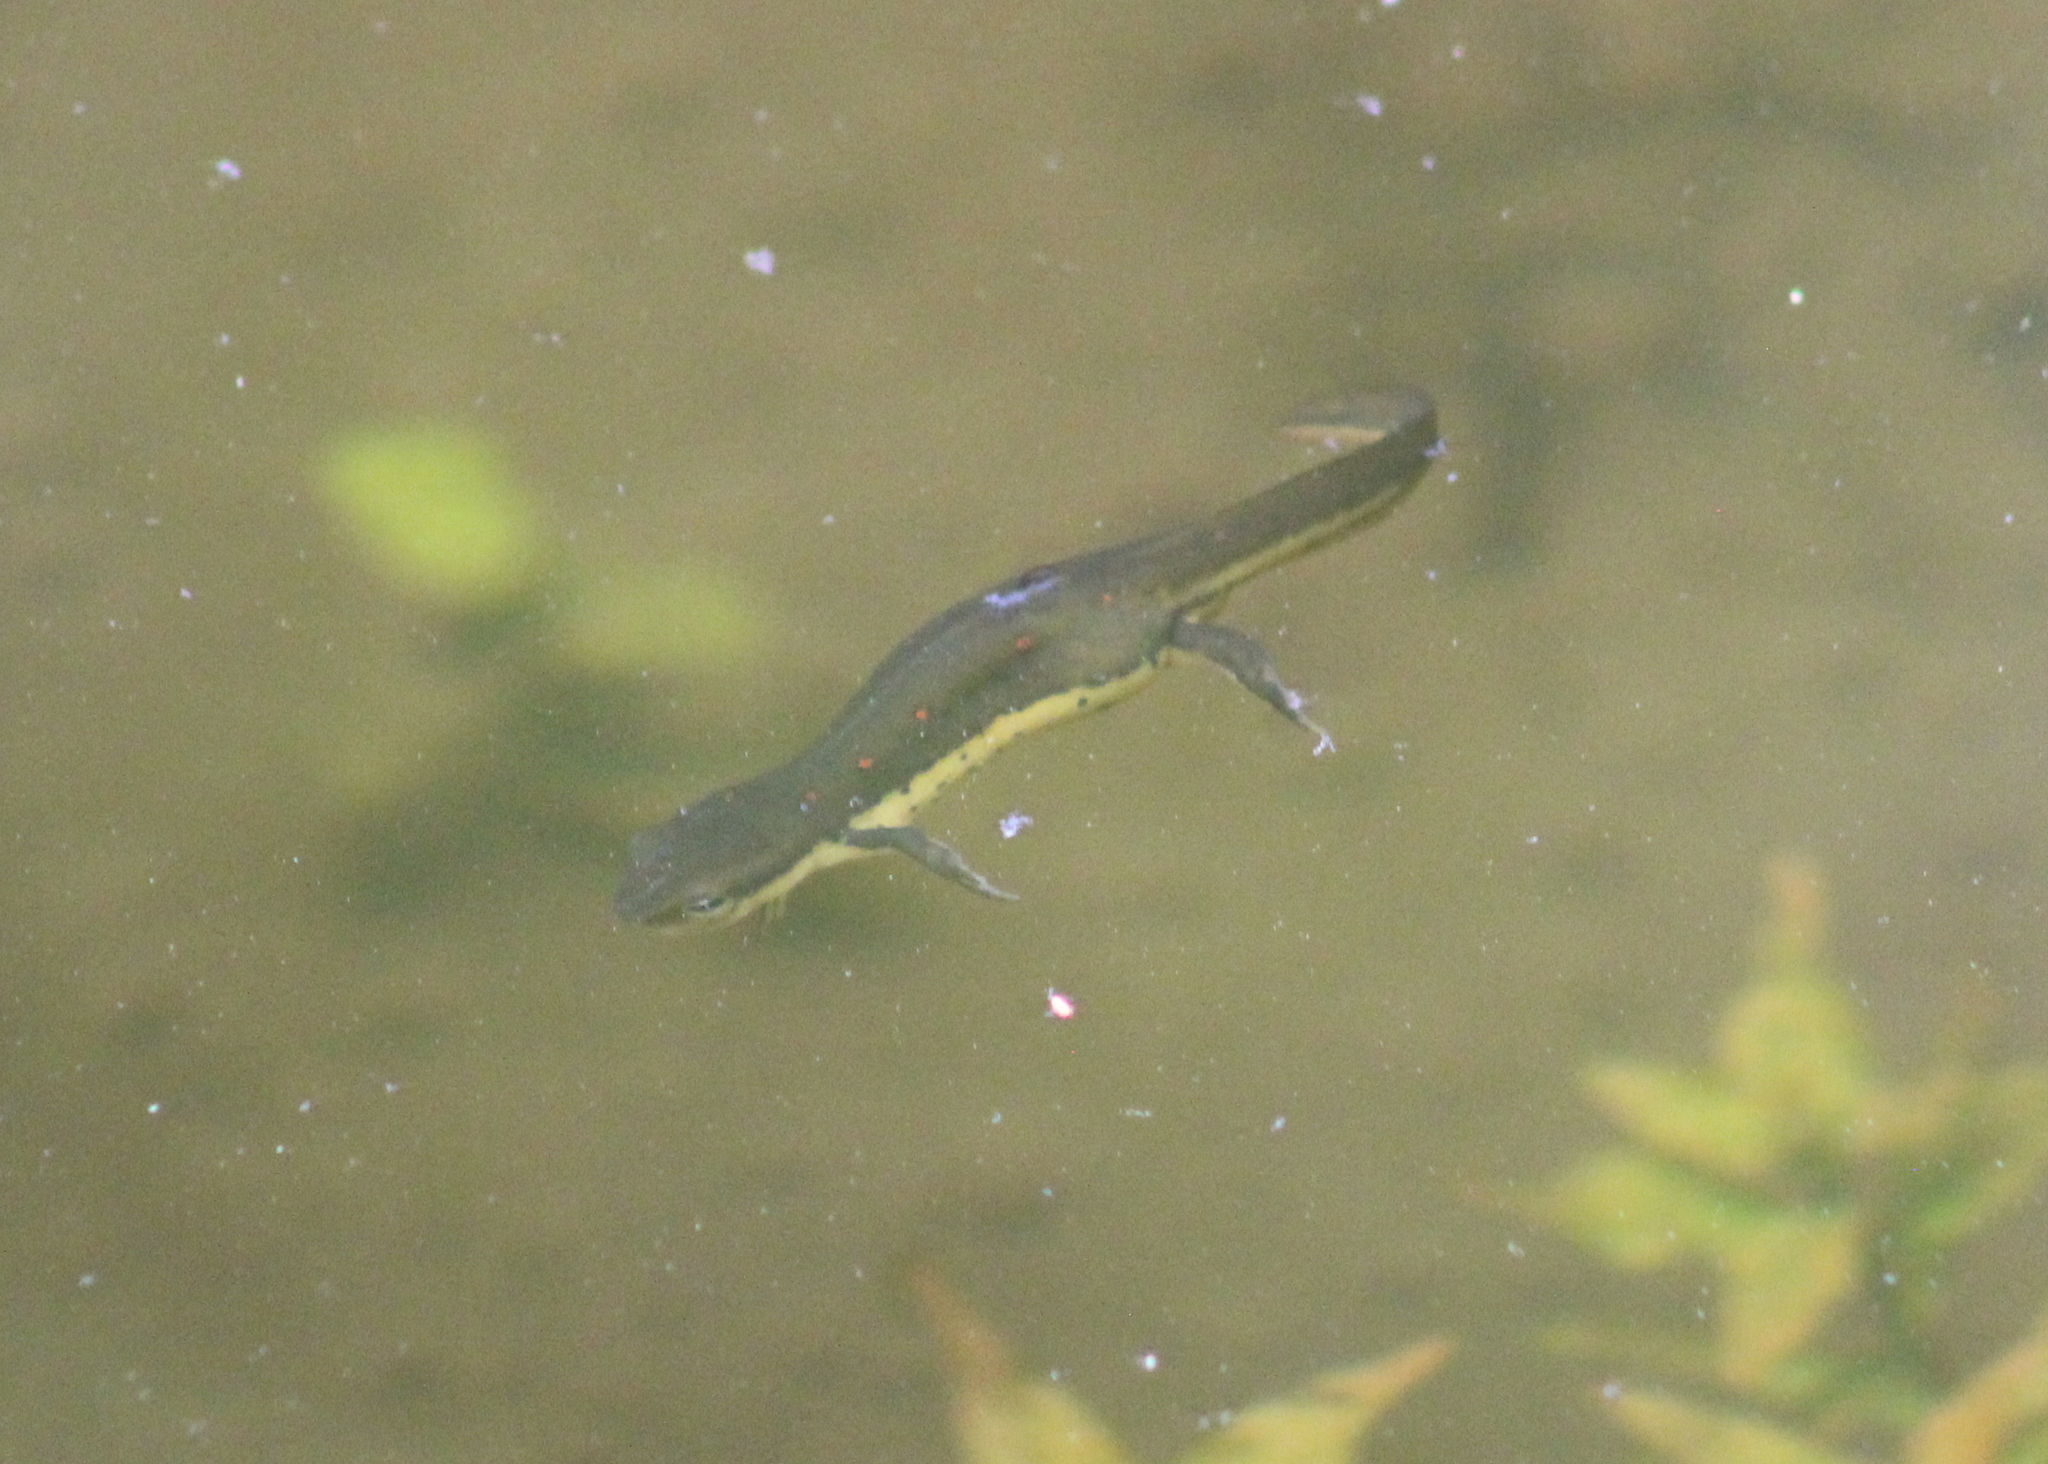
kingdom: Animalia
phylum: Chordata
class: Amphibia
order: Caudata
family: Salamandridae
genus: Notophthalmus
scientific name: Notophthalmus viridescens
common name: Eastern newt
